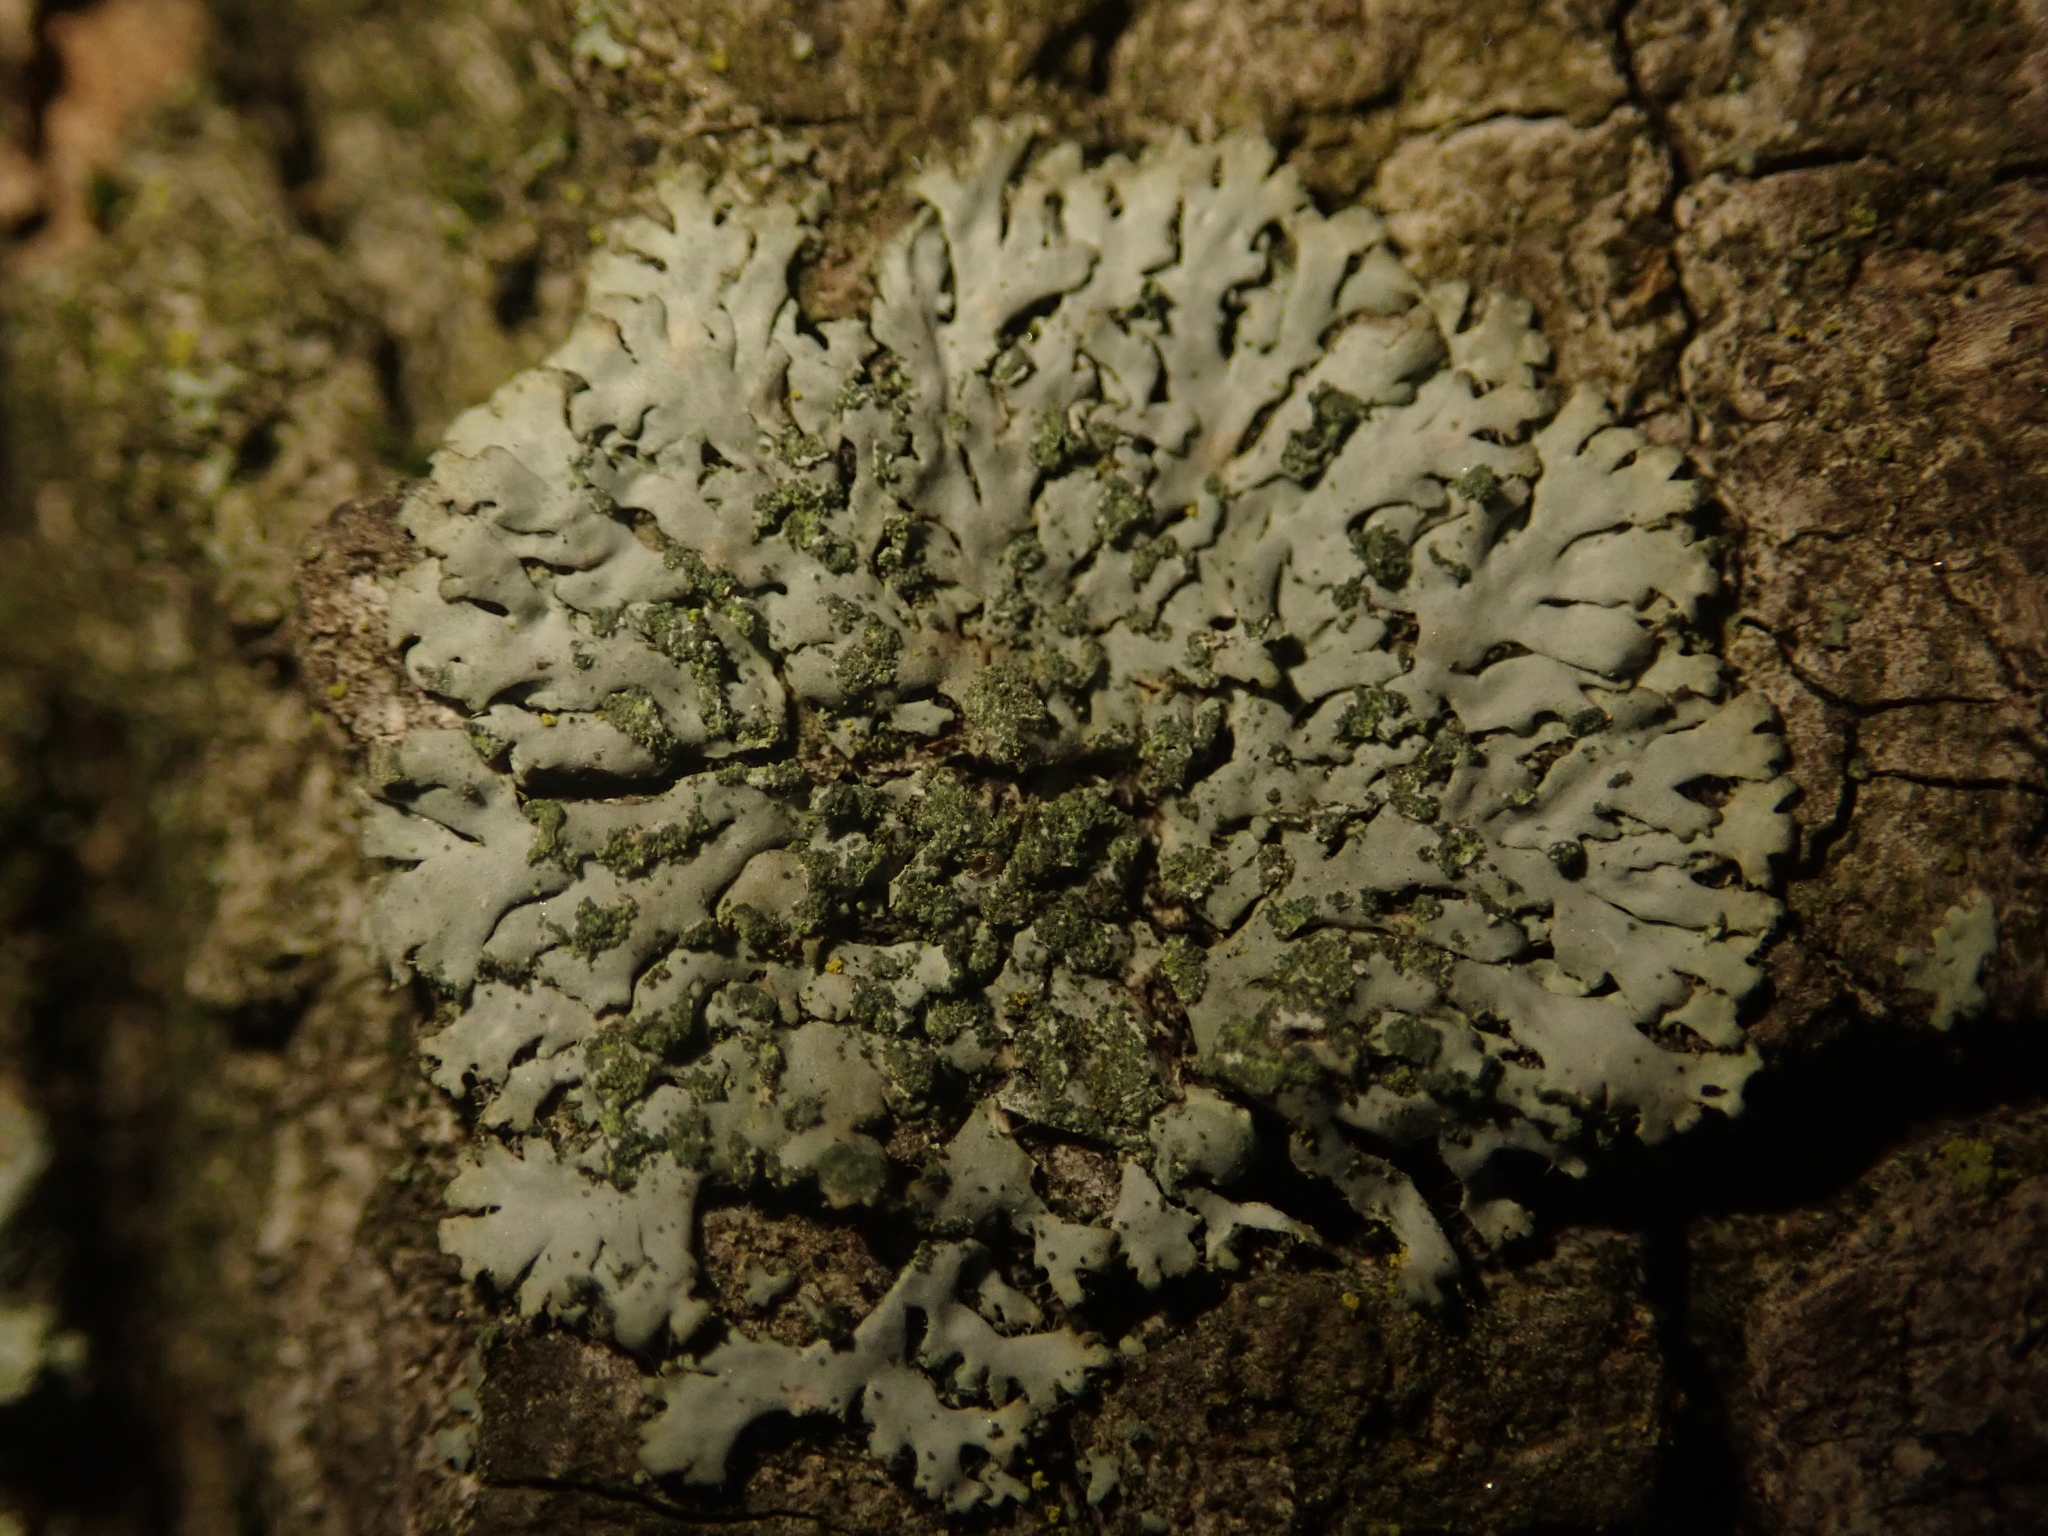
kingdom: Fungi
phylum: Ascomycota
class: Lecanoromycetes
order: Caliciales
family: Physciaceae
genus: Phaeophyscia
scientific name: Phaeophyscia orbicularis
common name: Mealy shadow lichen
